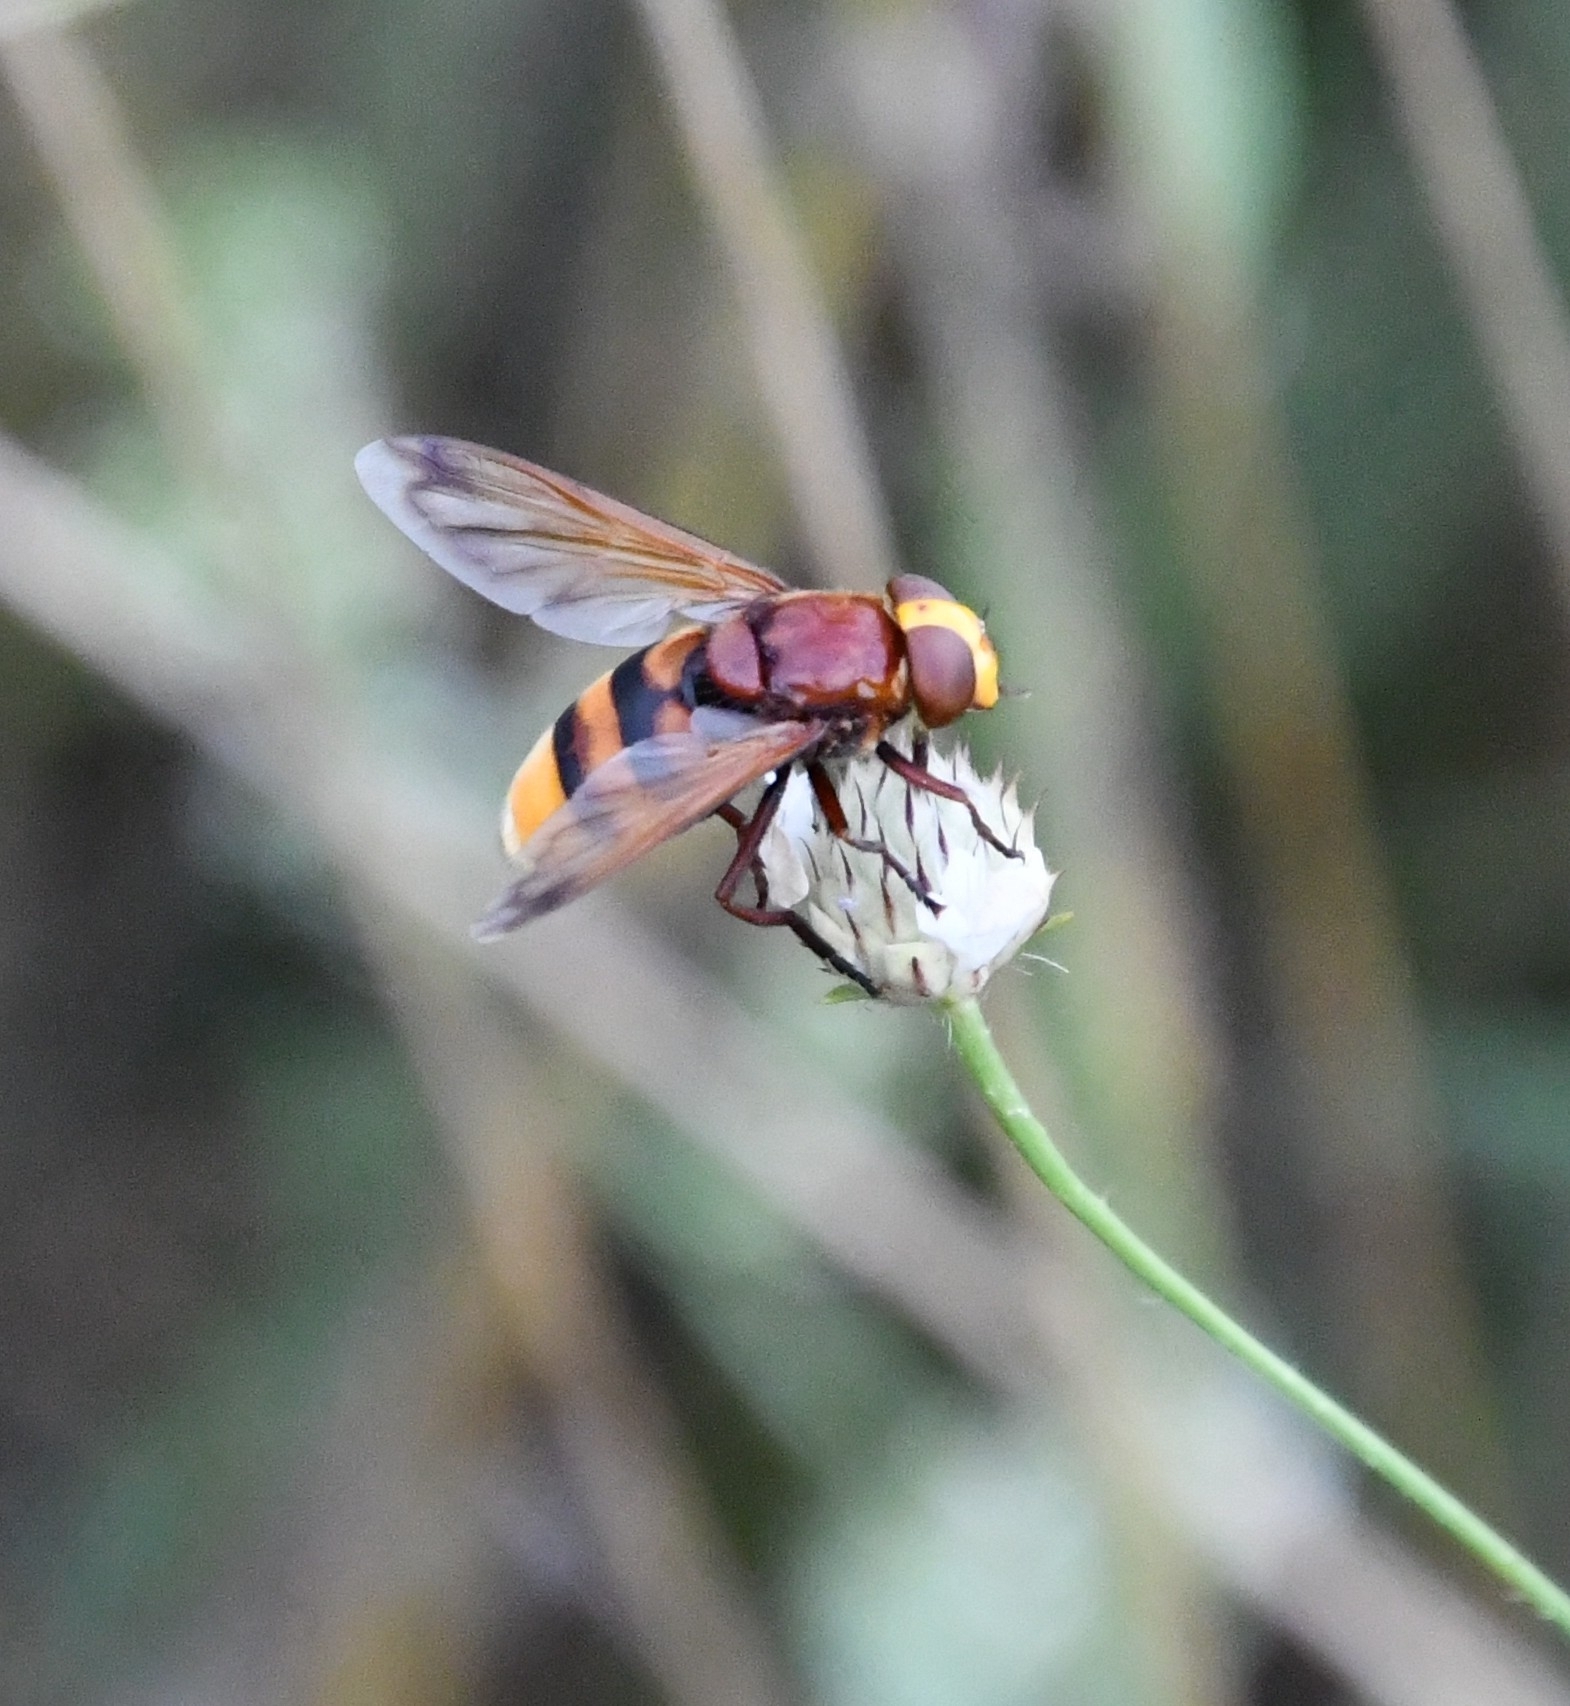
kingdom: Animalia
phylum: Arthropoda
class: Insecta
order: Diptera
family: Syrphidae
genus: Volucella
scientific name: Volucella zonaria
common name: Hornet hoverfly
